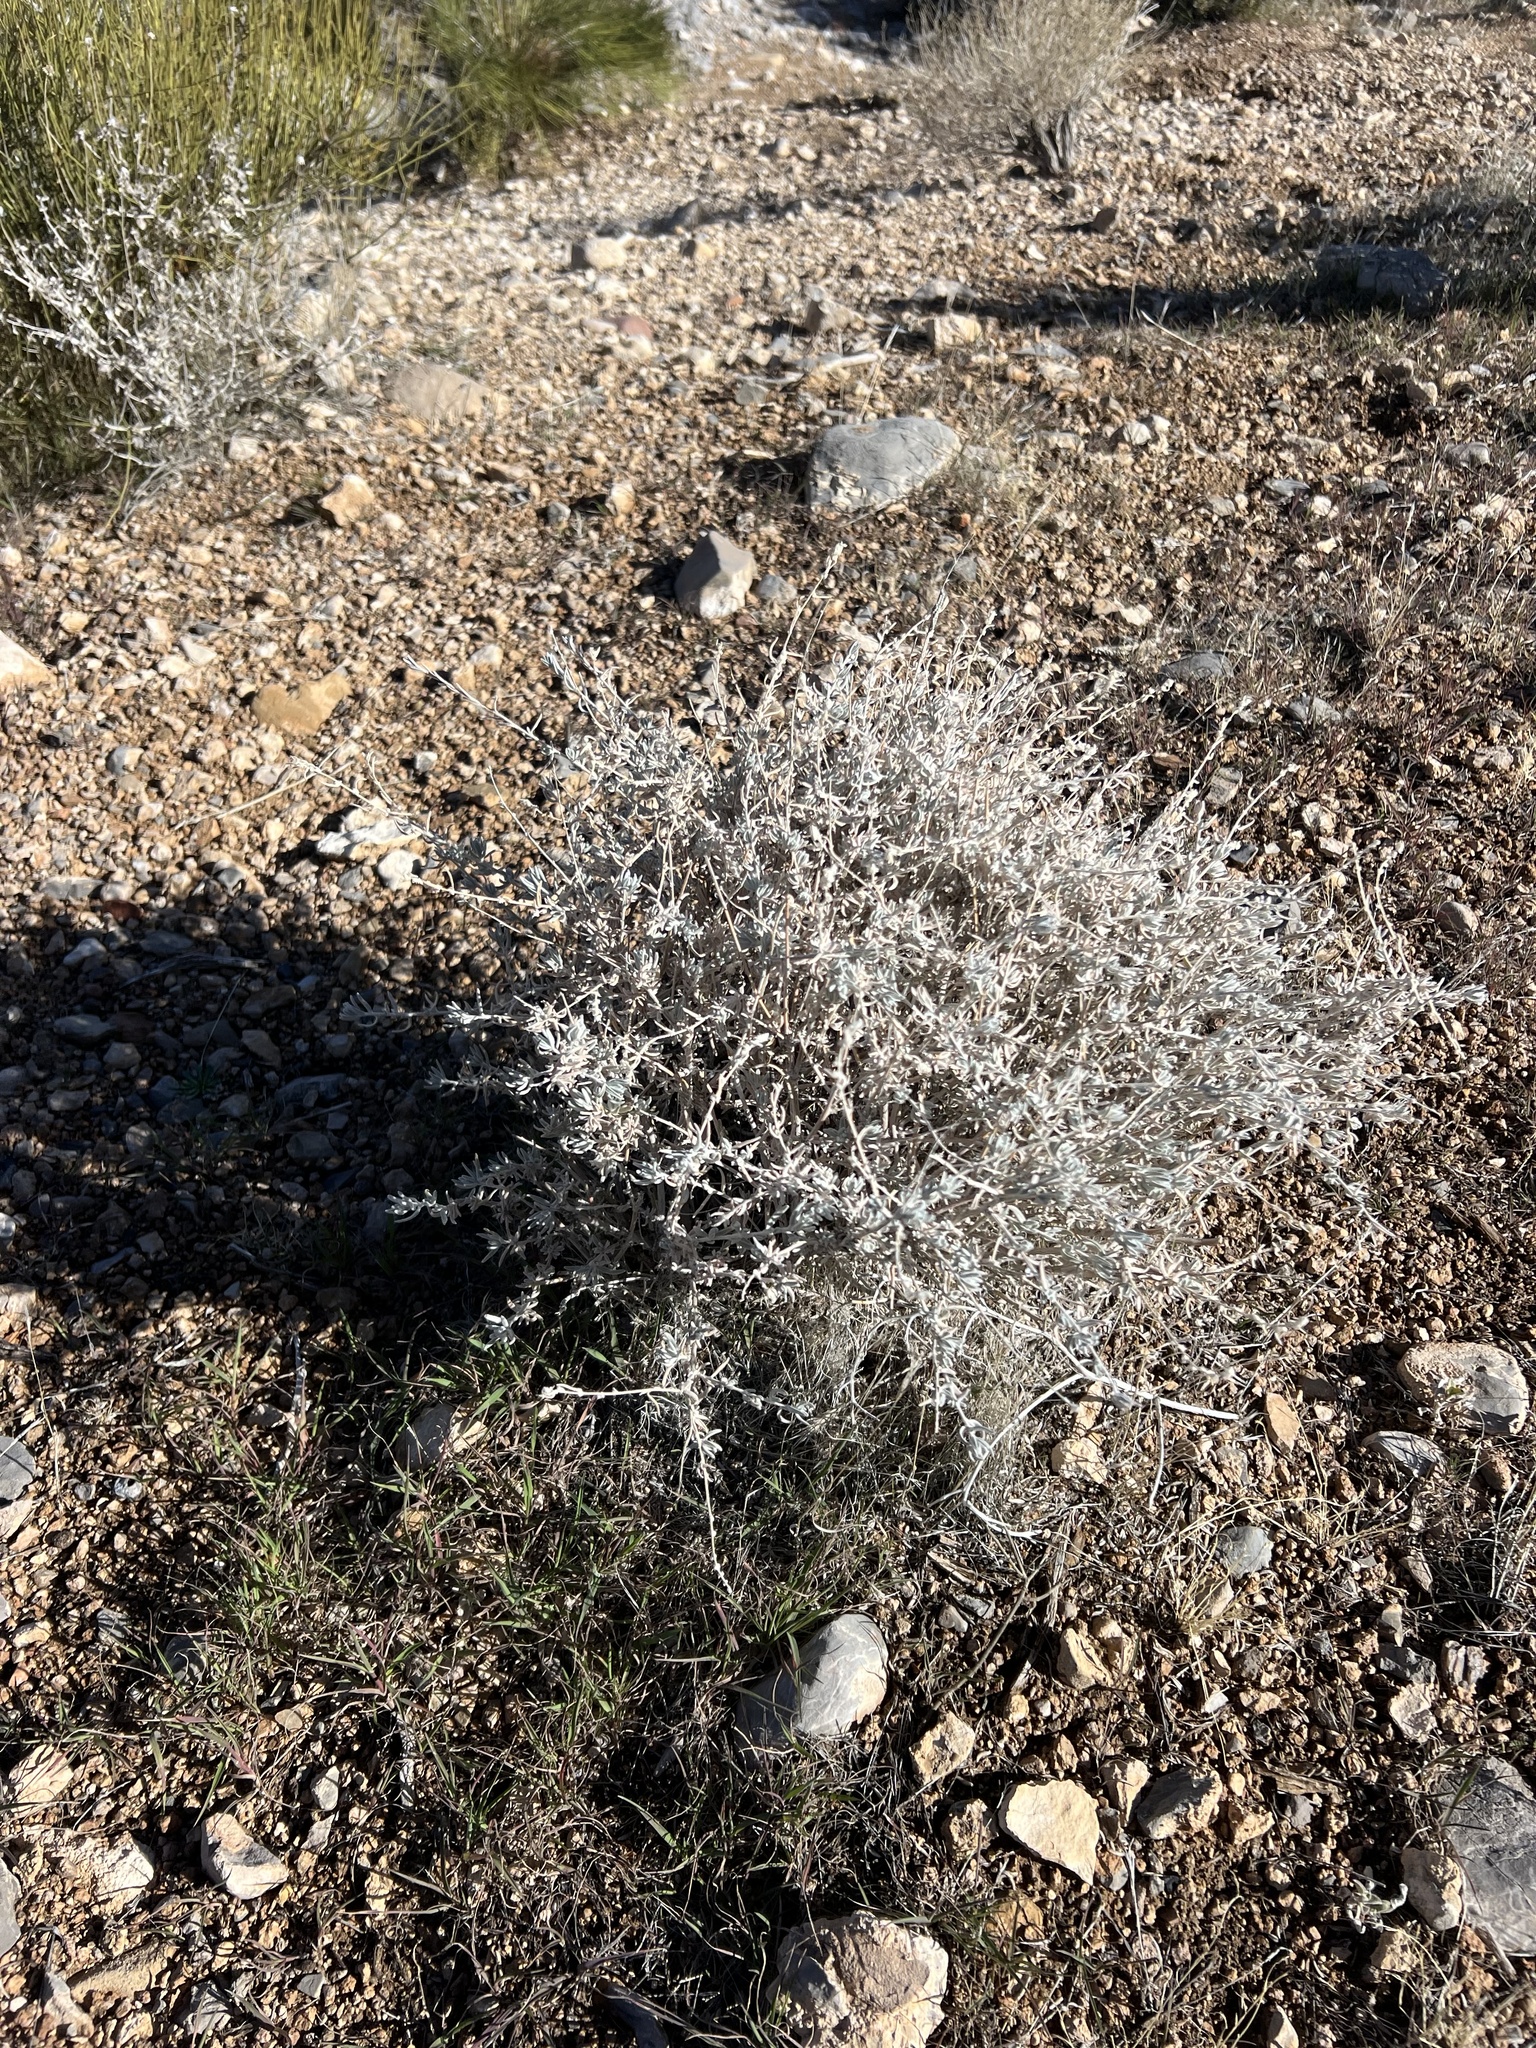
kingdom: Plantae
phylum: Tracheophyta
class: Magnoliopsida
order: Caryophyllales
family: Amaranthaceae
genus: Krascheninnikovia
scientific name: Krascheninnikovia lanata
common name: Winterfat
